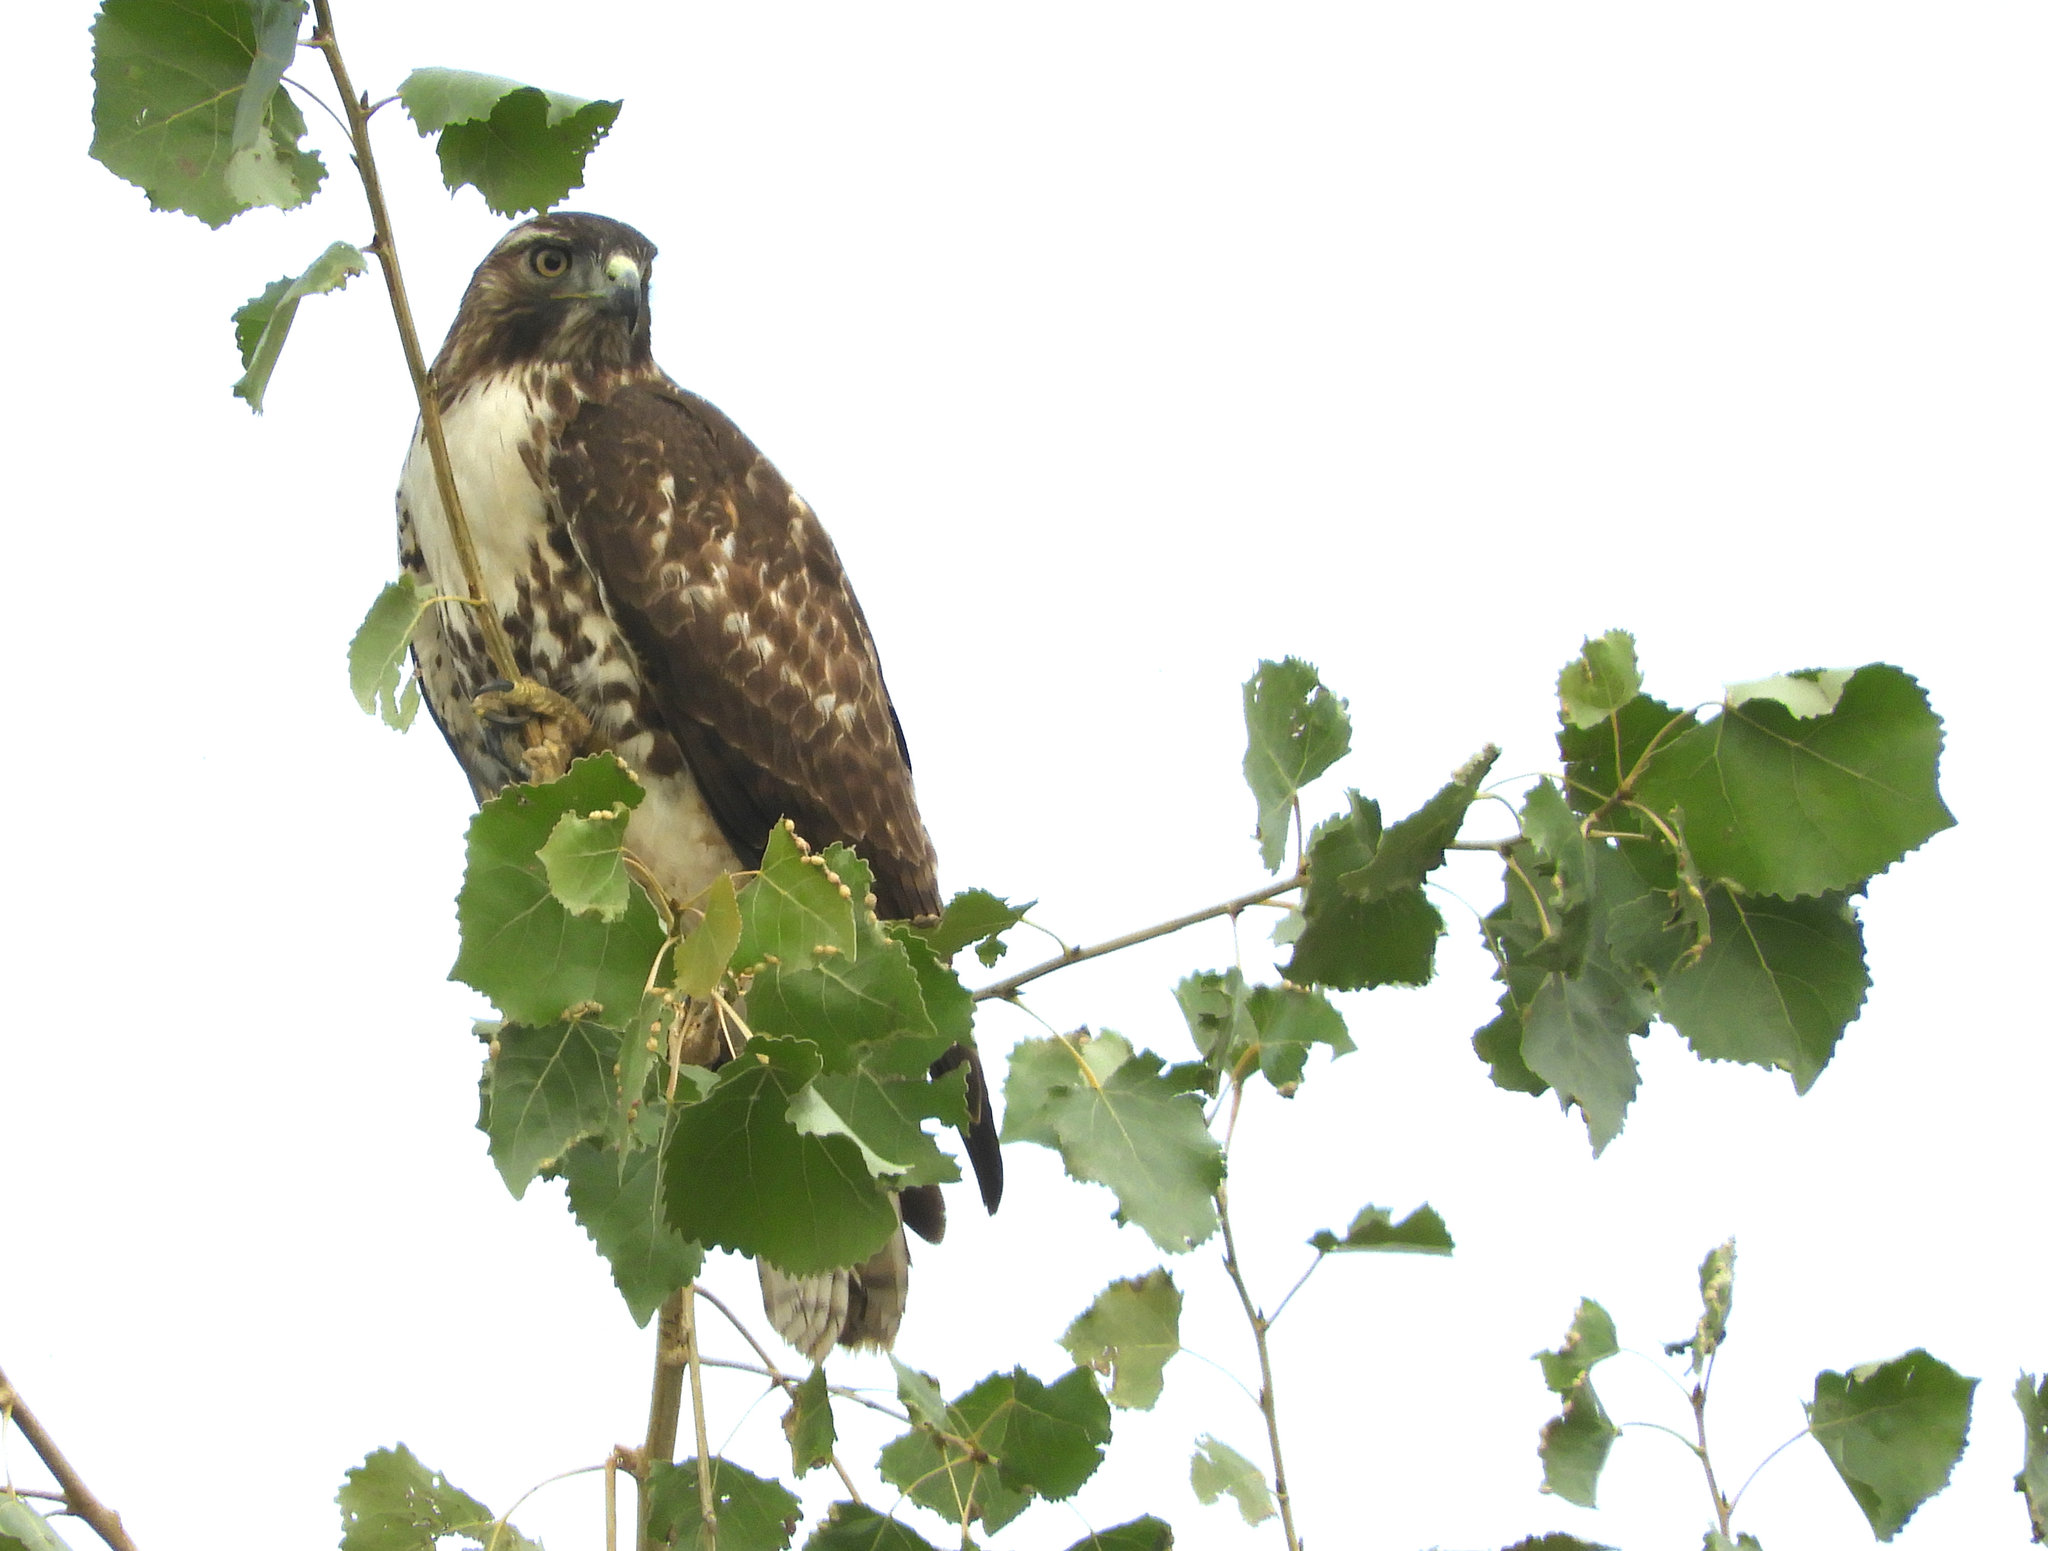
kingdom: Animalia
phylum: Chordata
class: Aves
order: Accipitriformes
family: Accipitridae
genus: Buteo
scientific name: Buteo jamaicensis
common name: Red-tailed hawk
